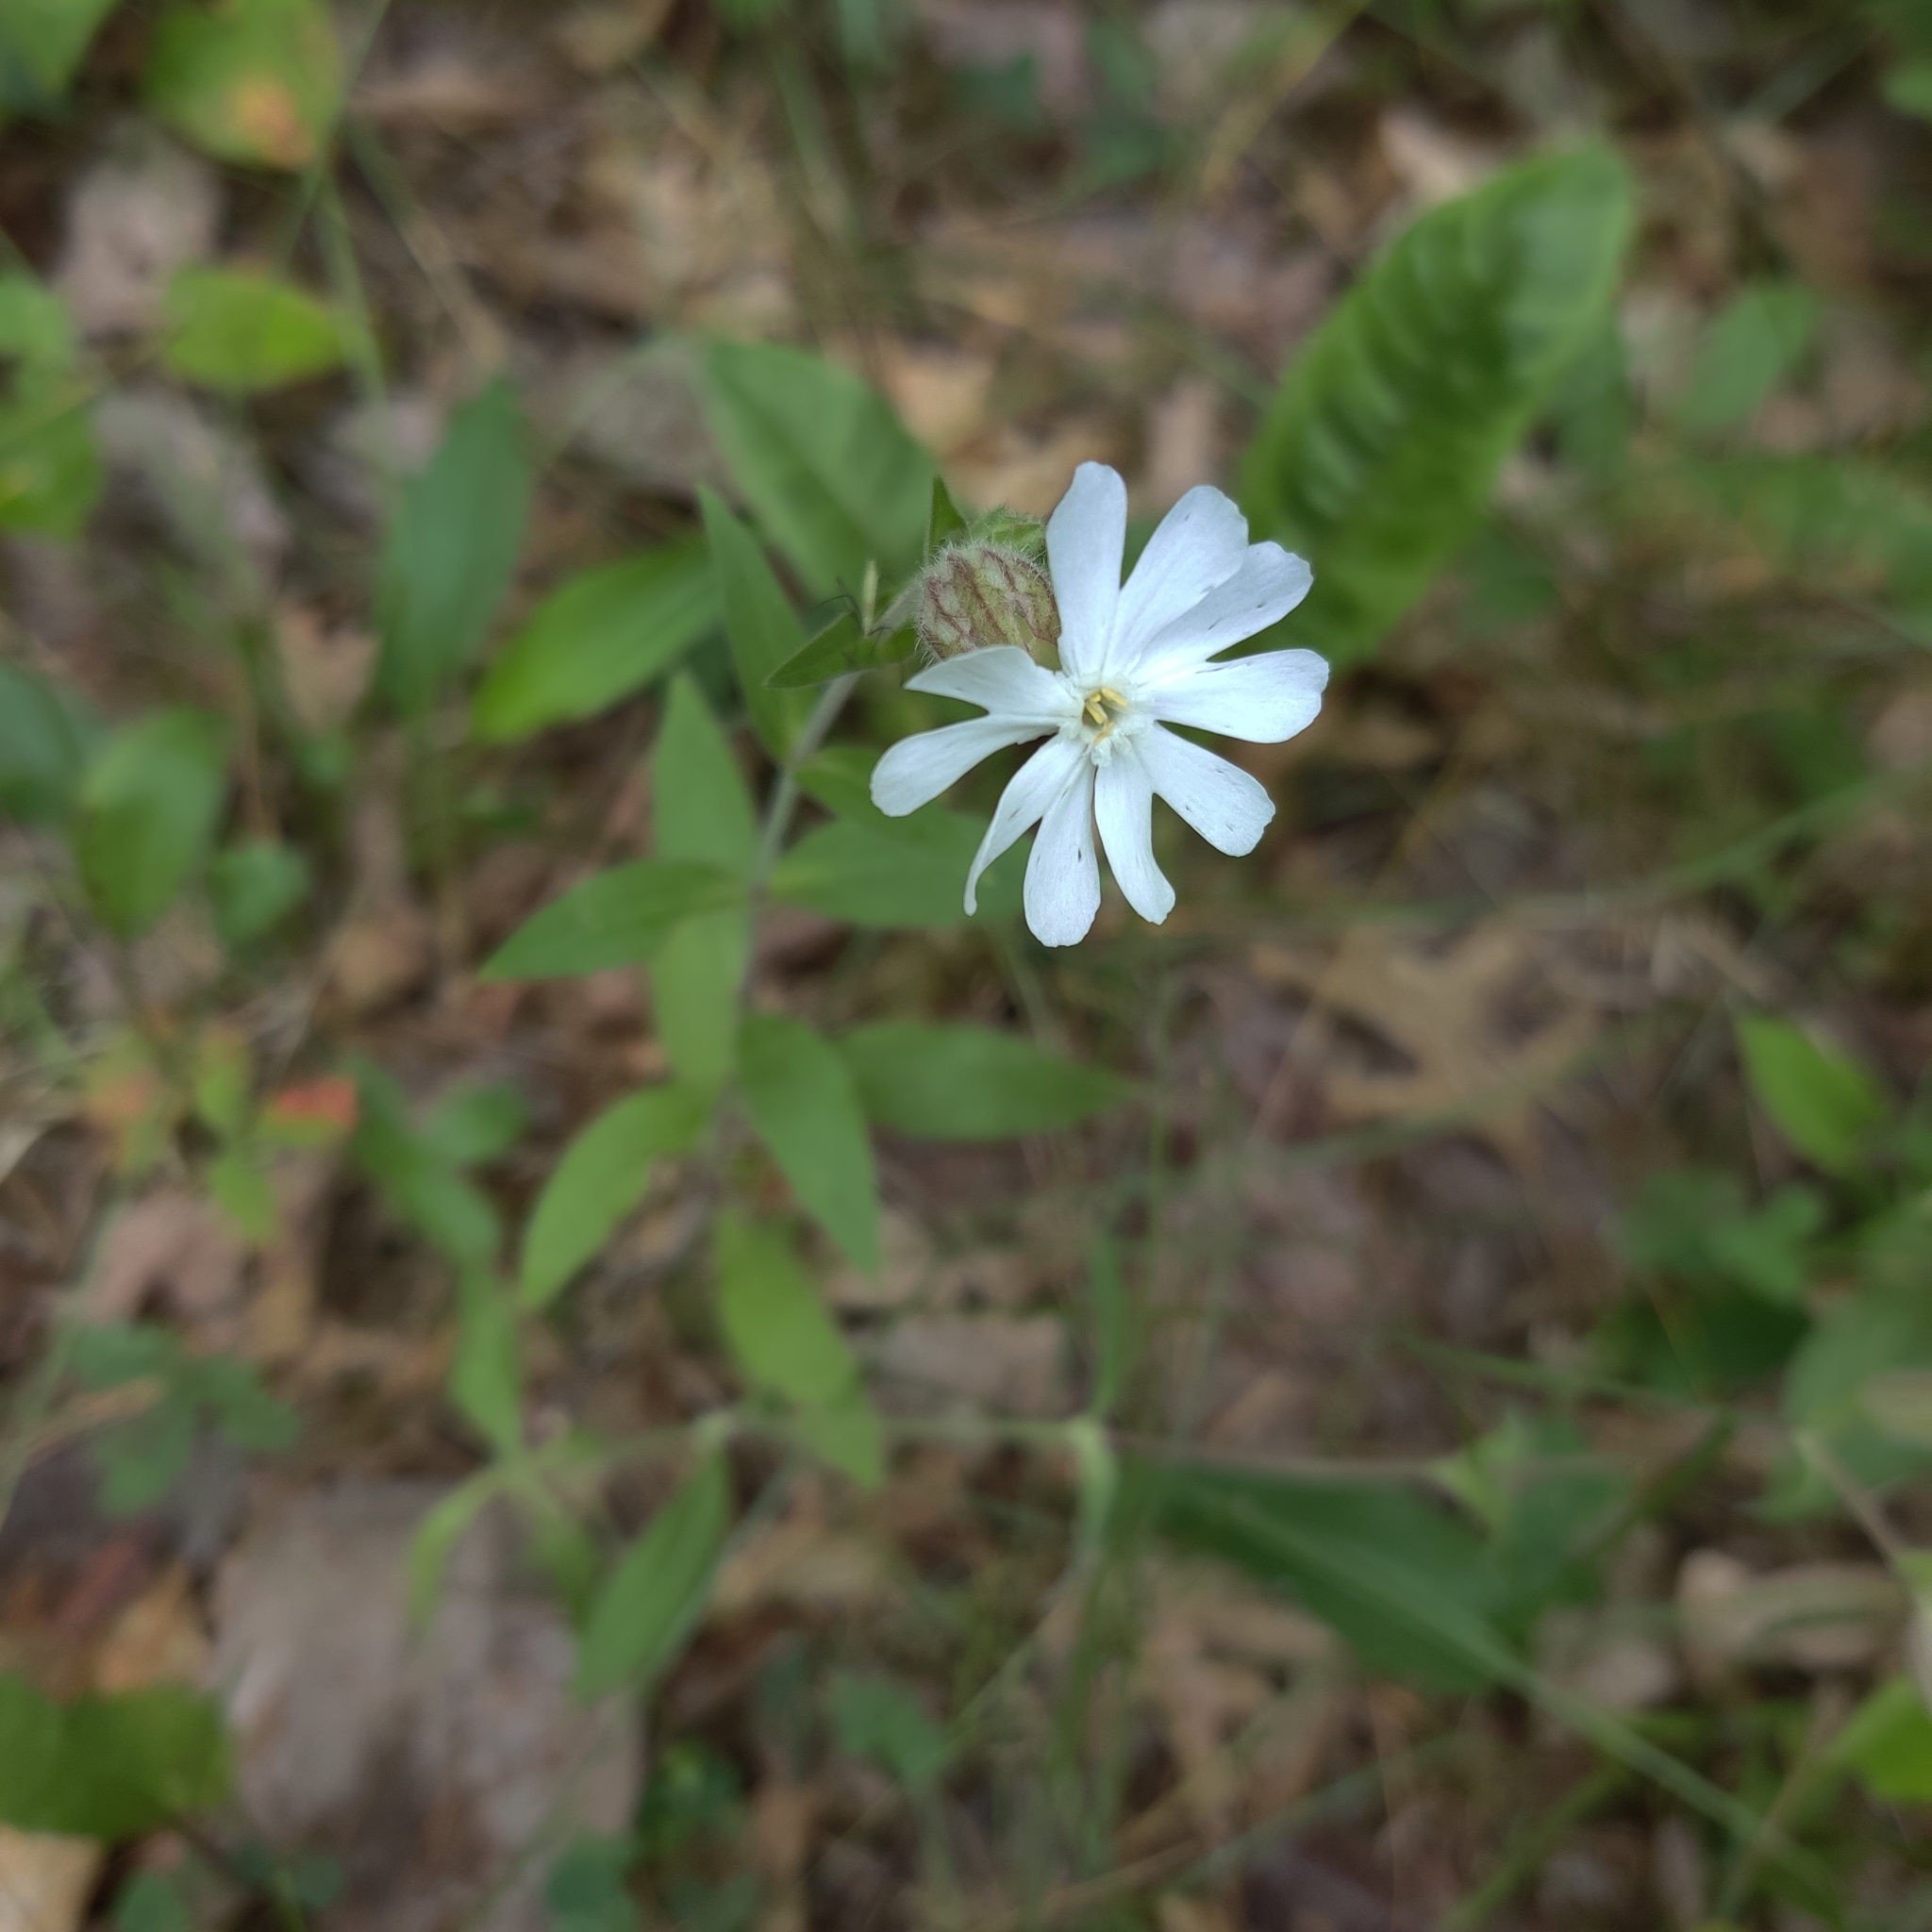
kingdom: Plantae
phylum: Tracheophyta
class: Magnoliopsida
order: Caryophyllales
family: Caryophyllaceae
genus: Silene
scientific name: Silene latifolia
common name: White campion
